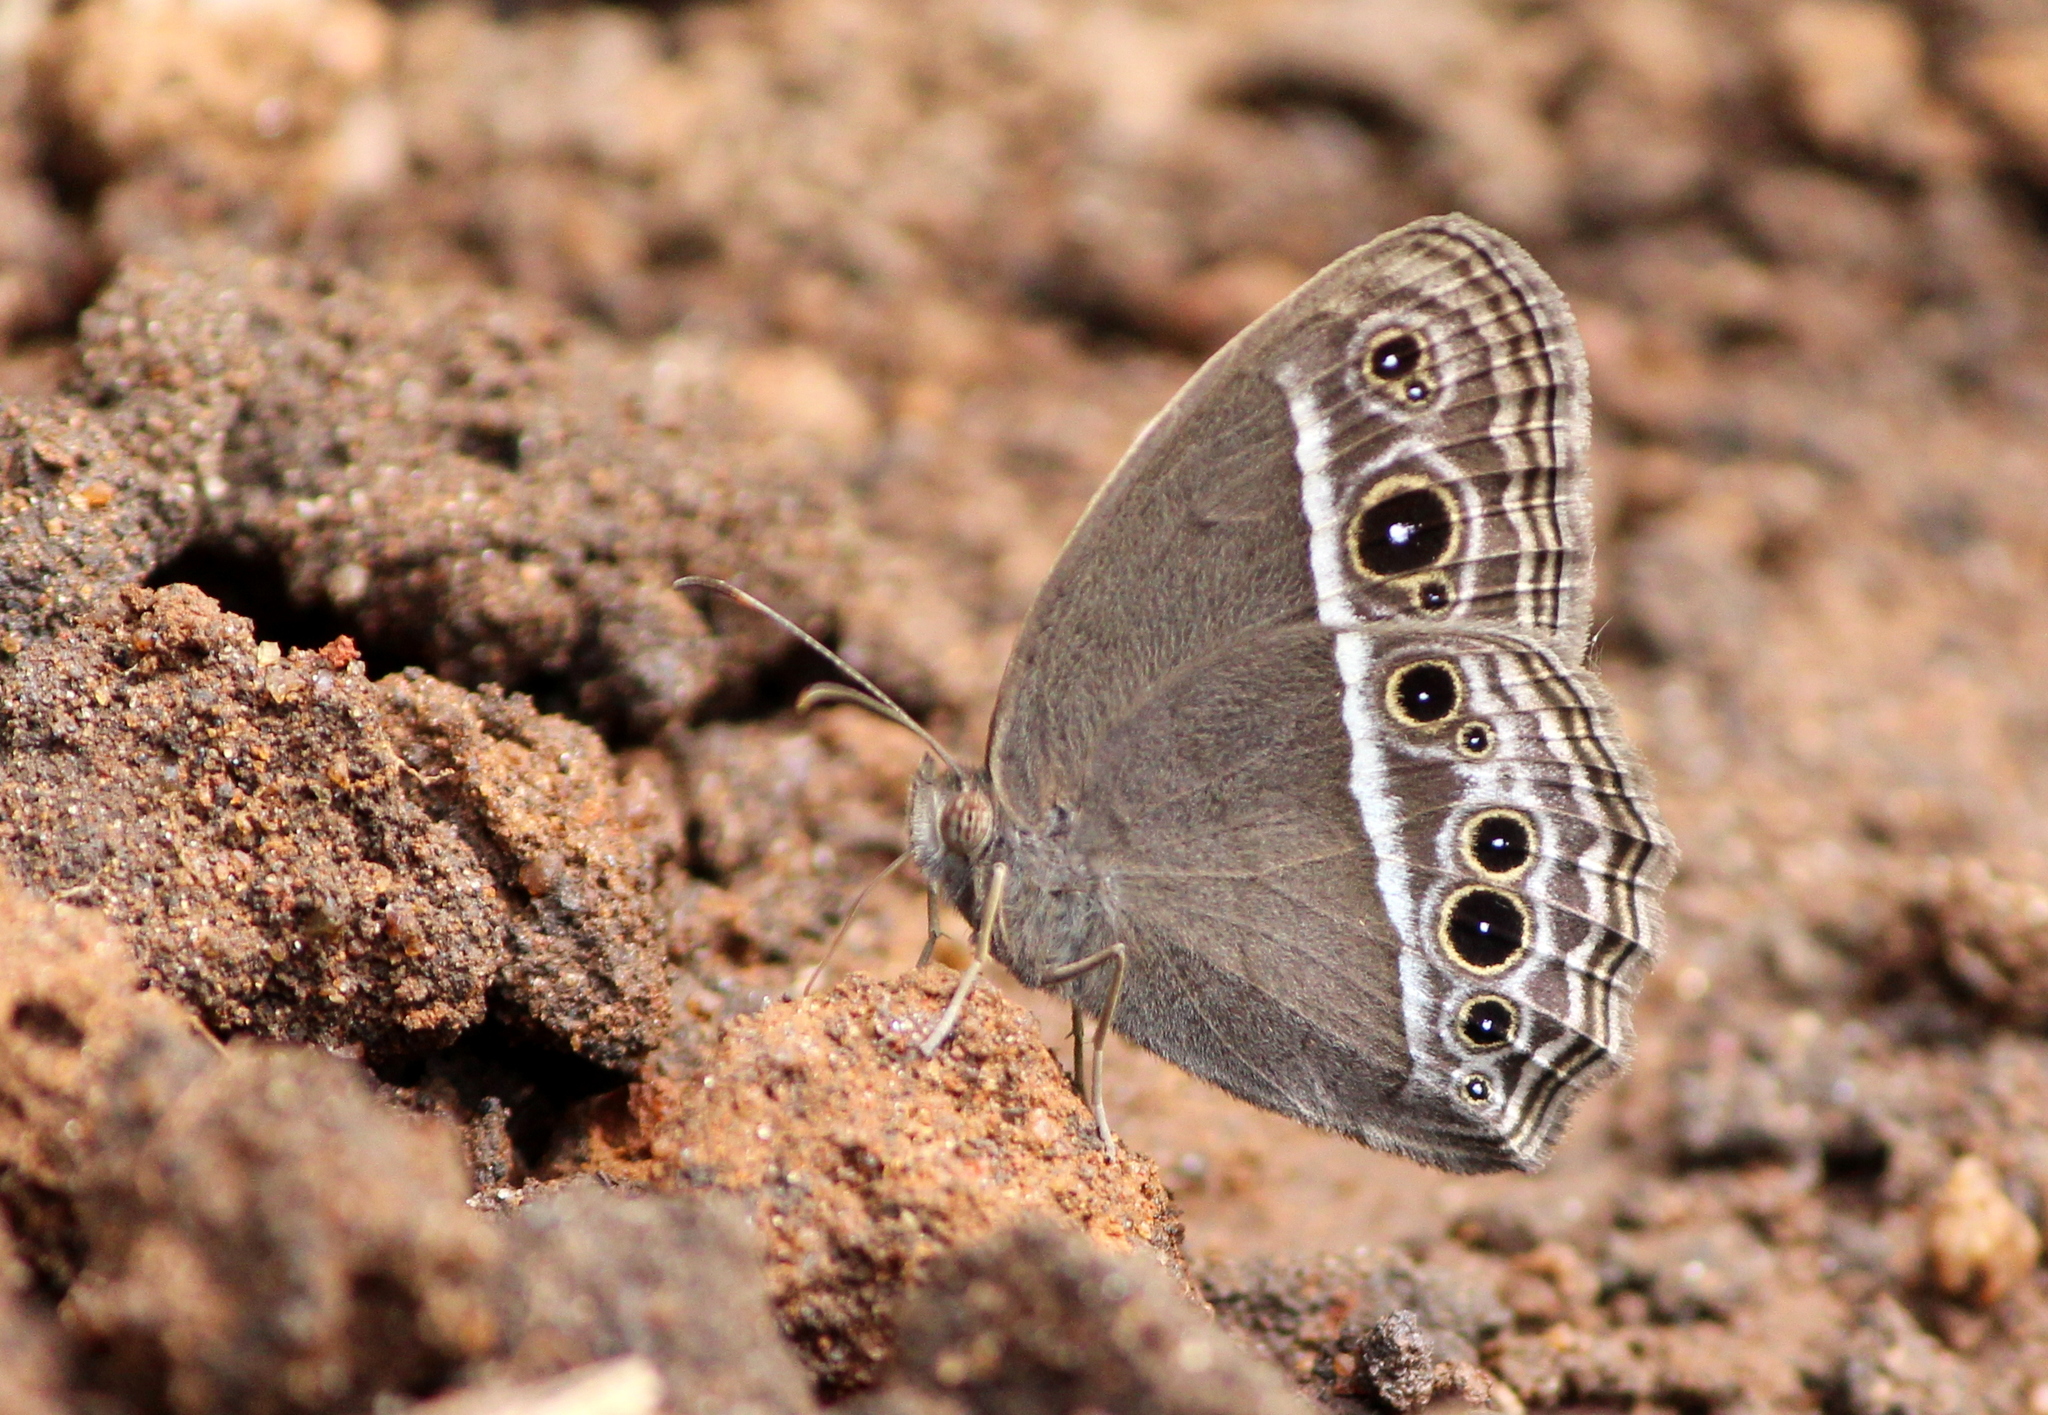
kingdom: Animalia
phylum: Arthropoda
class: Insecta
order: Lepidoptera
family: Nymphalidae
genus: Mycalesis
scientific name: Mycalesis mineus
